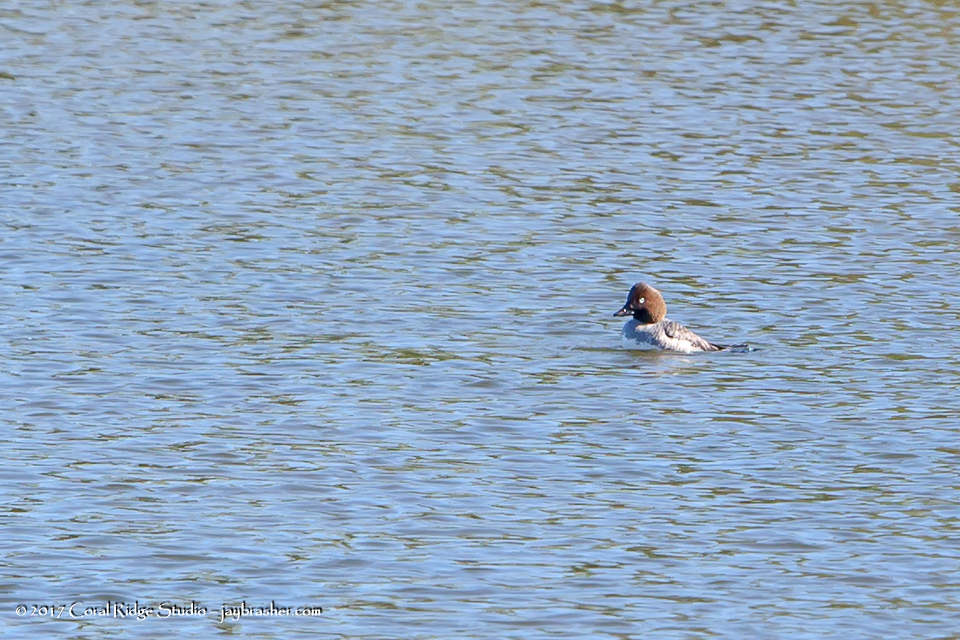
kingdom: Animalia
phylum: Chordata
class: Aves
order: Anseriformes
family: Anatidae
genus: Bucephala
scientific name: Bucephala clangula
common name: Common goldeneye
